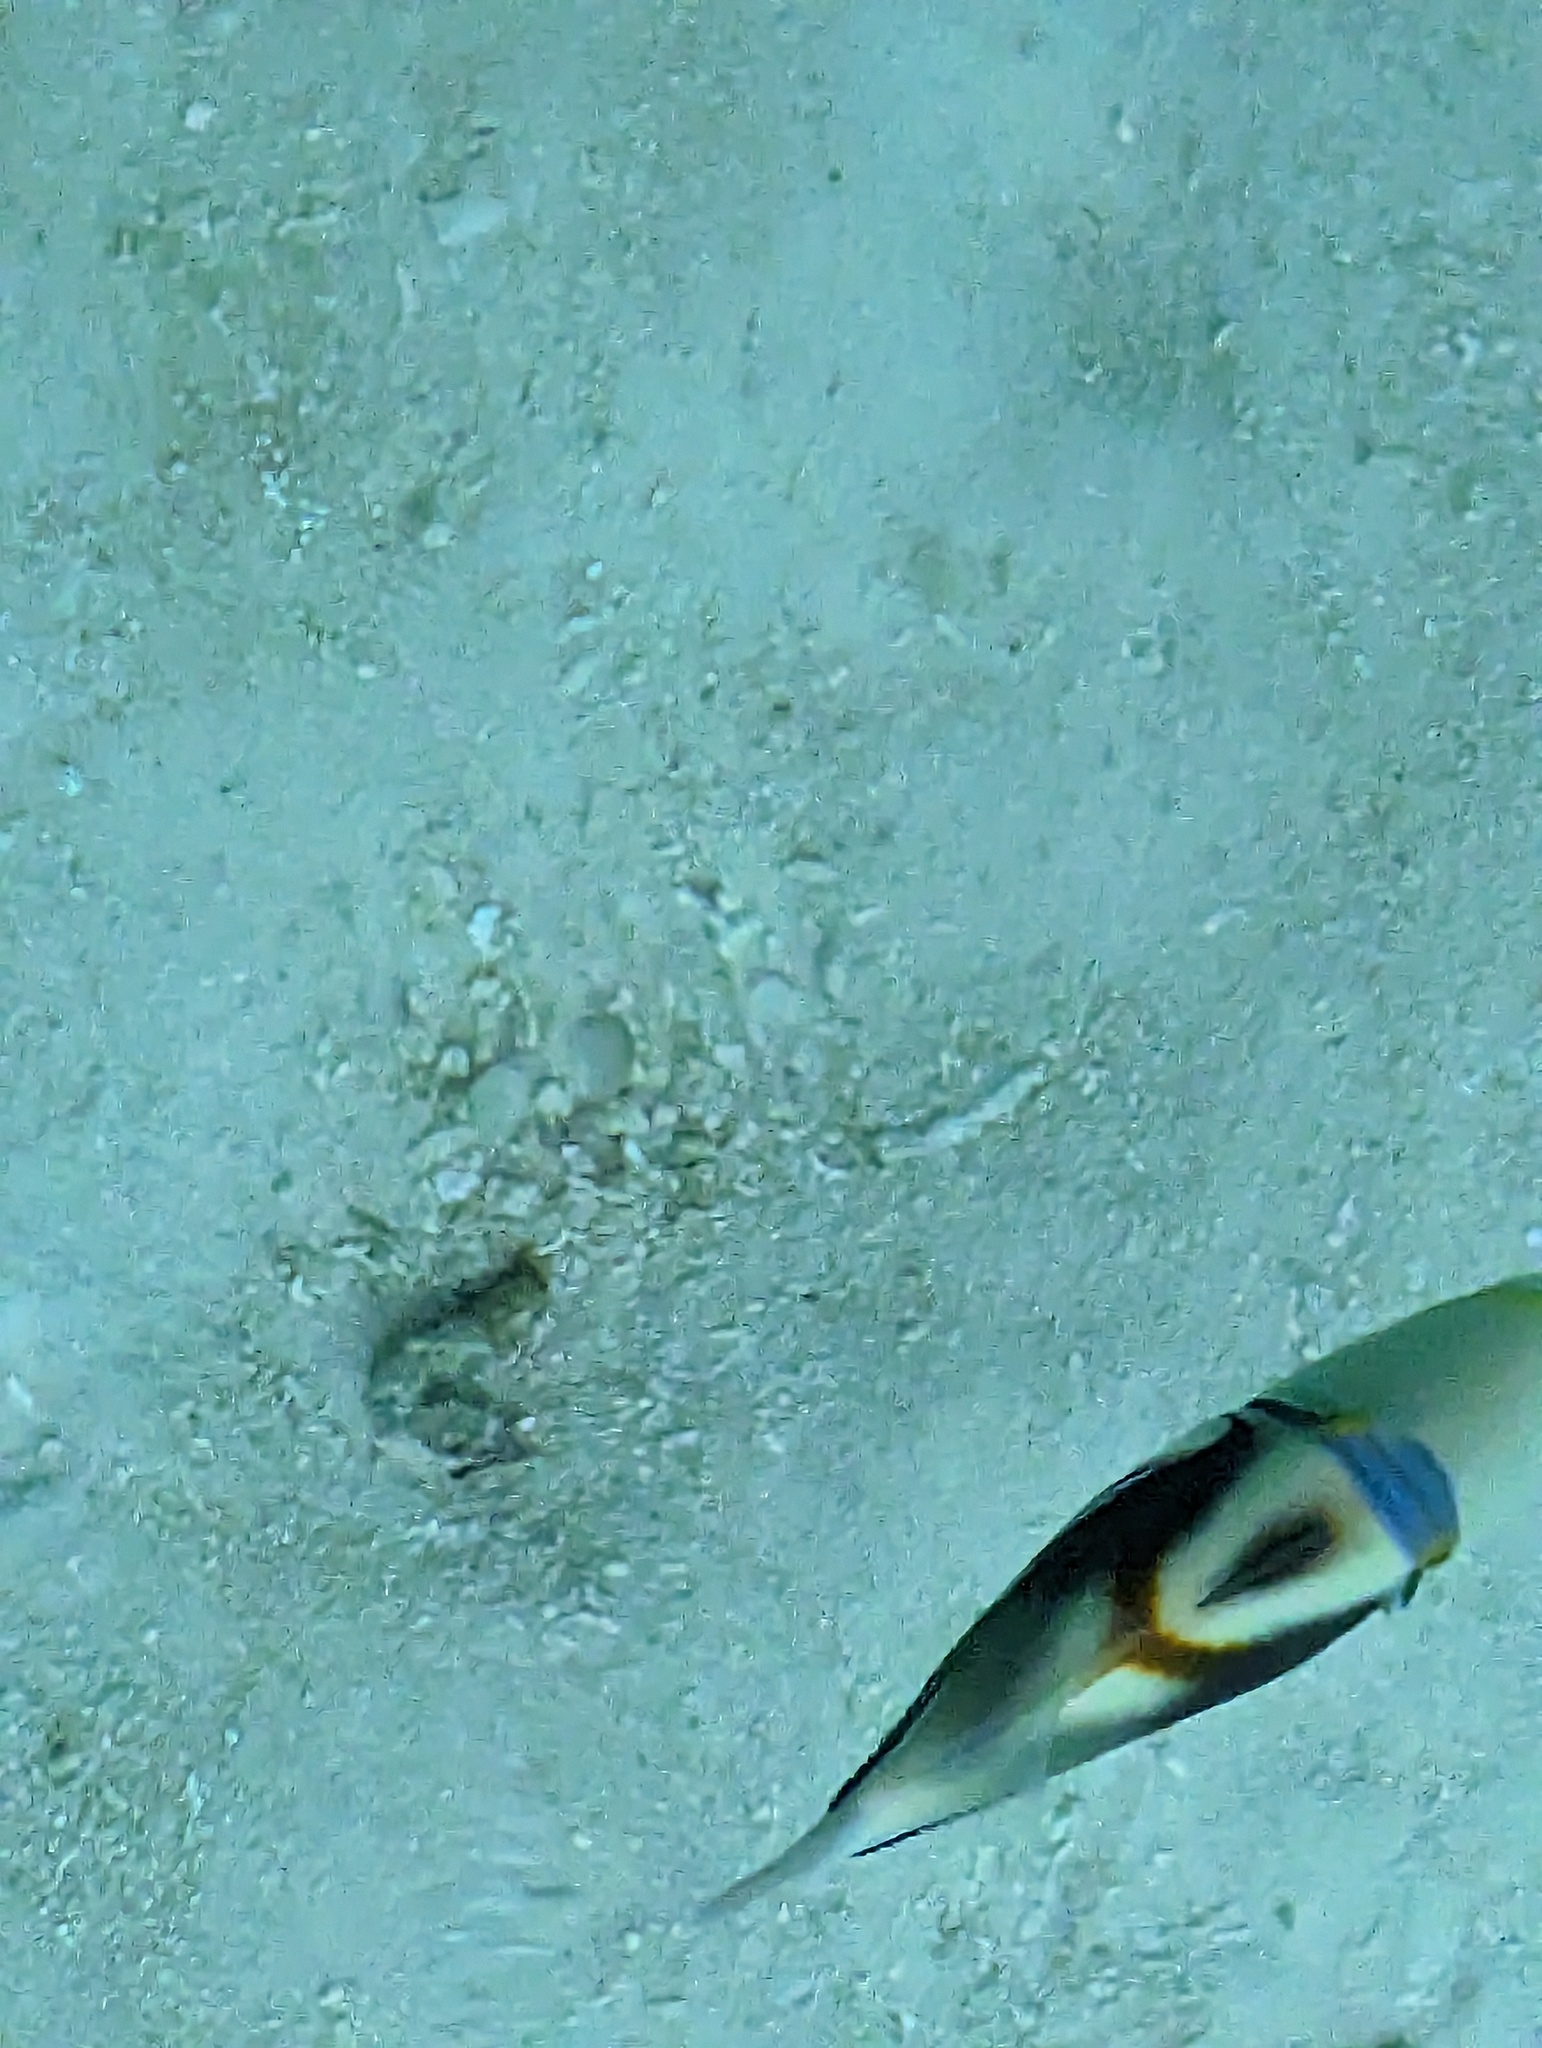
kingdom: Animalia
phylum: Chordata
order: Tetraodontiformes
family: Balistidae
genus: Rhinecanthus
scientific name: Rhinecanthus aculeatus
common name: White-banded triggerfish
